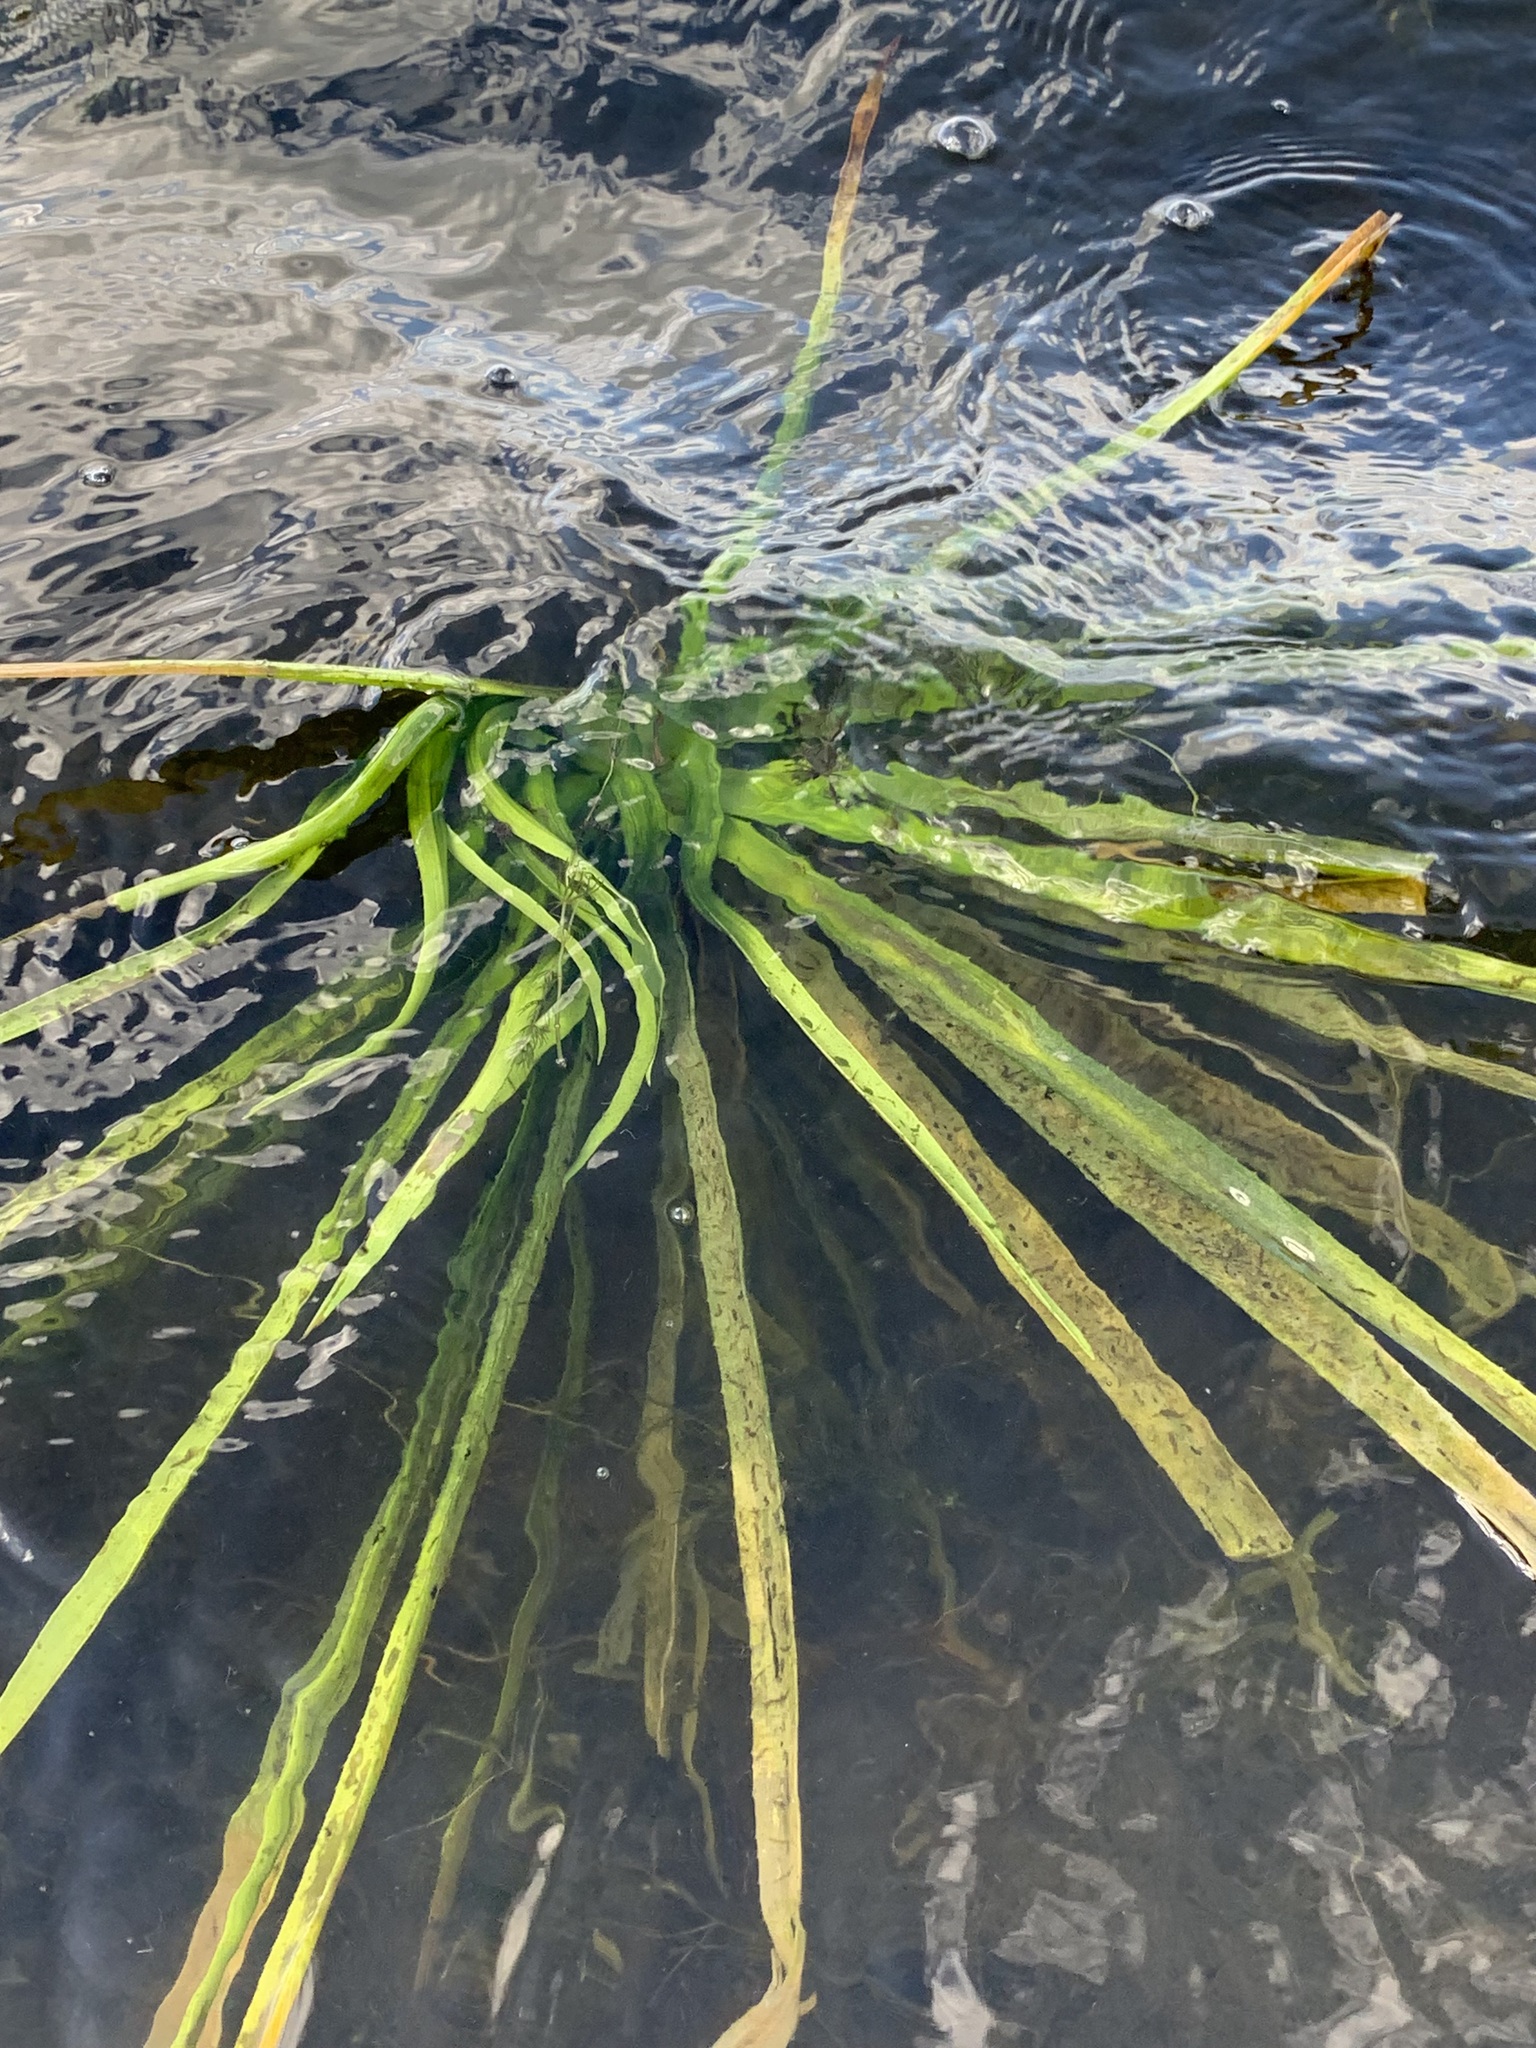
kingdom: Plantae
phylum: Tracheophyta
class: Liliopsida
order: Alismatales
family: Hydrocharitaceae
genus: Stratiotes
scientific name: Stratiotes aloides
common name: Water-soldier
